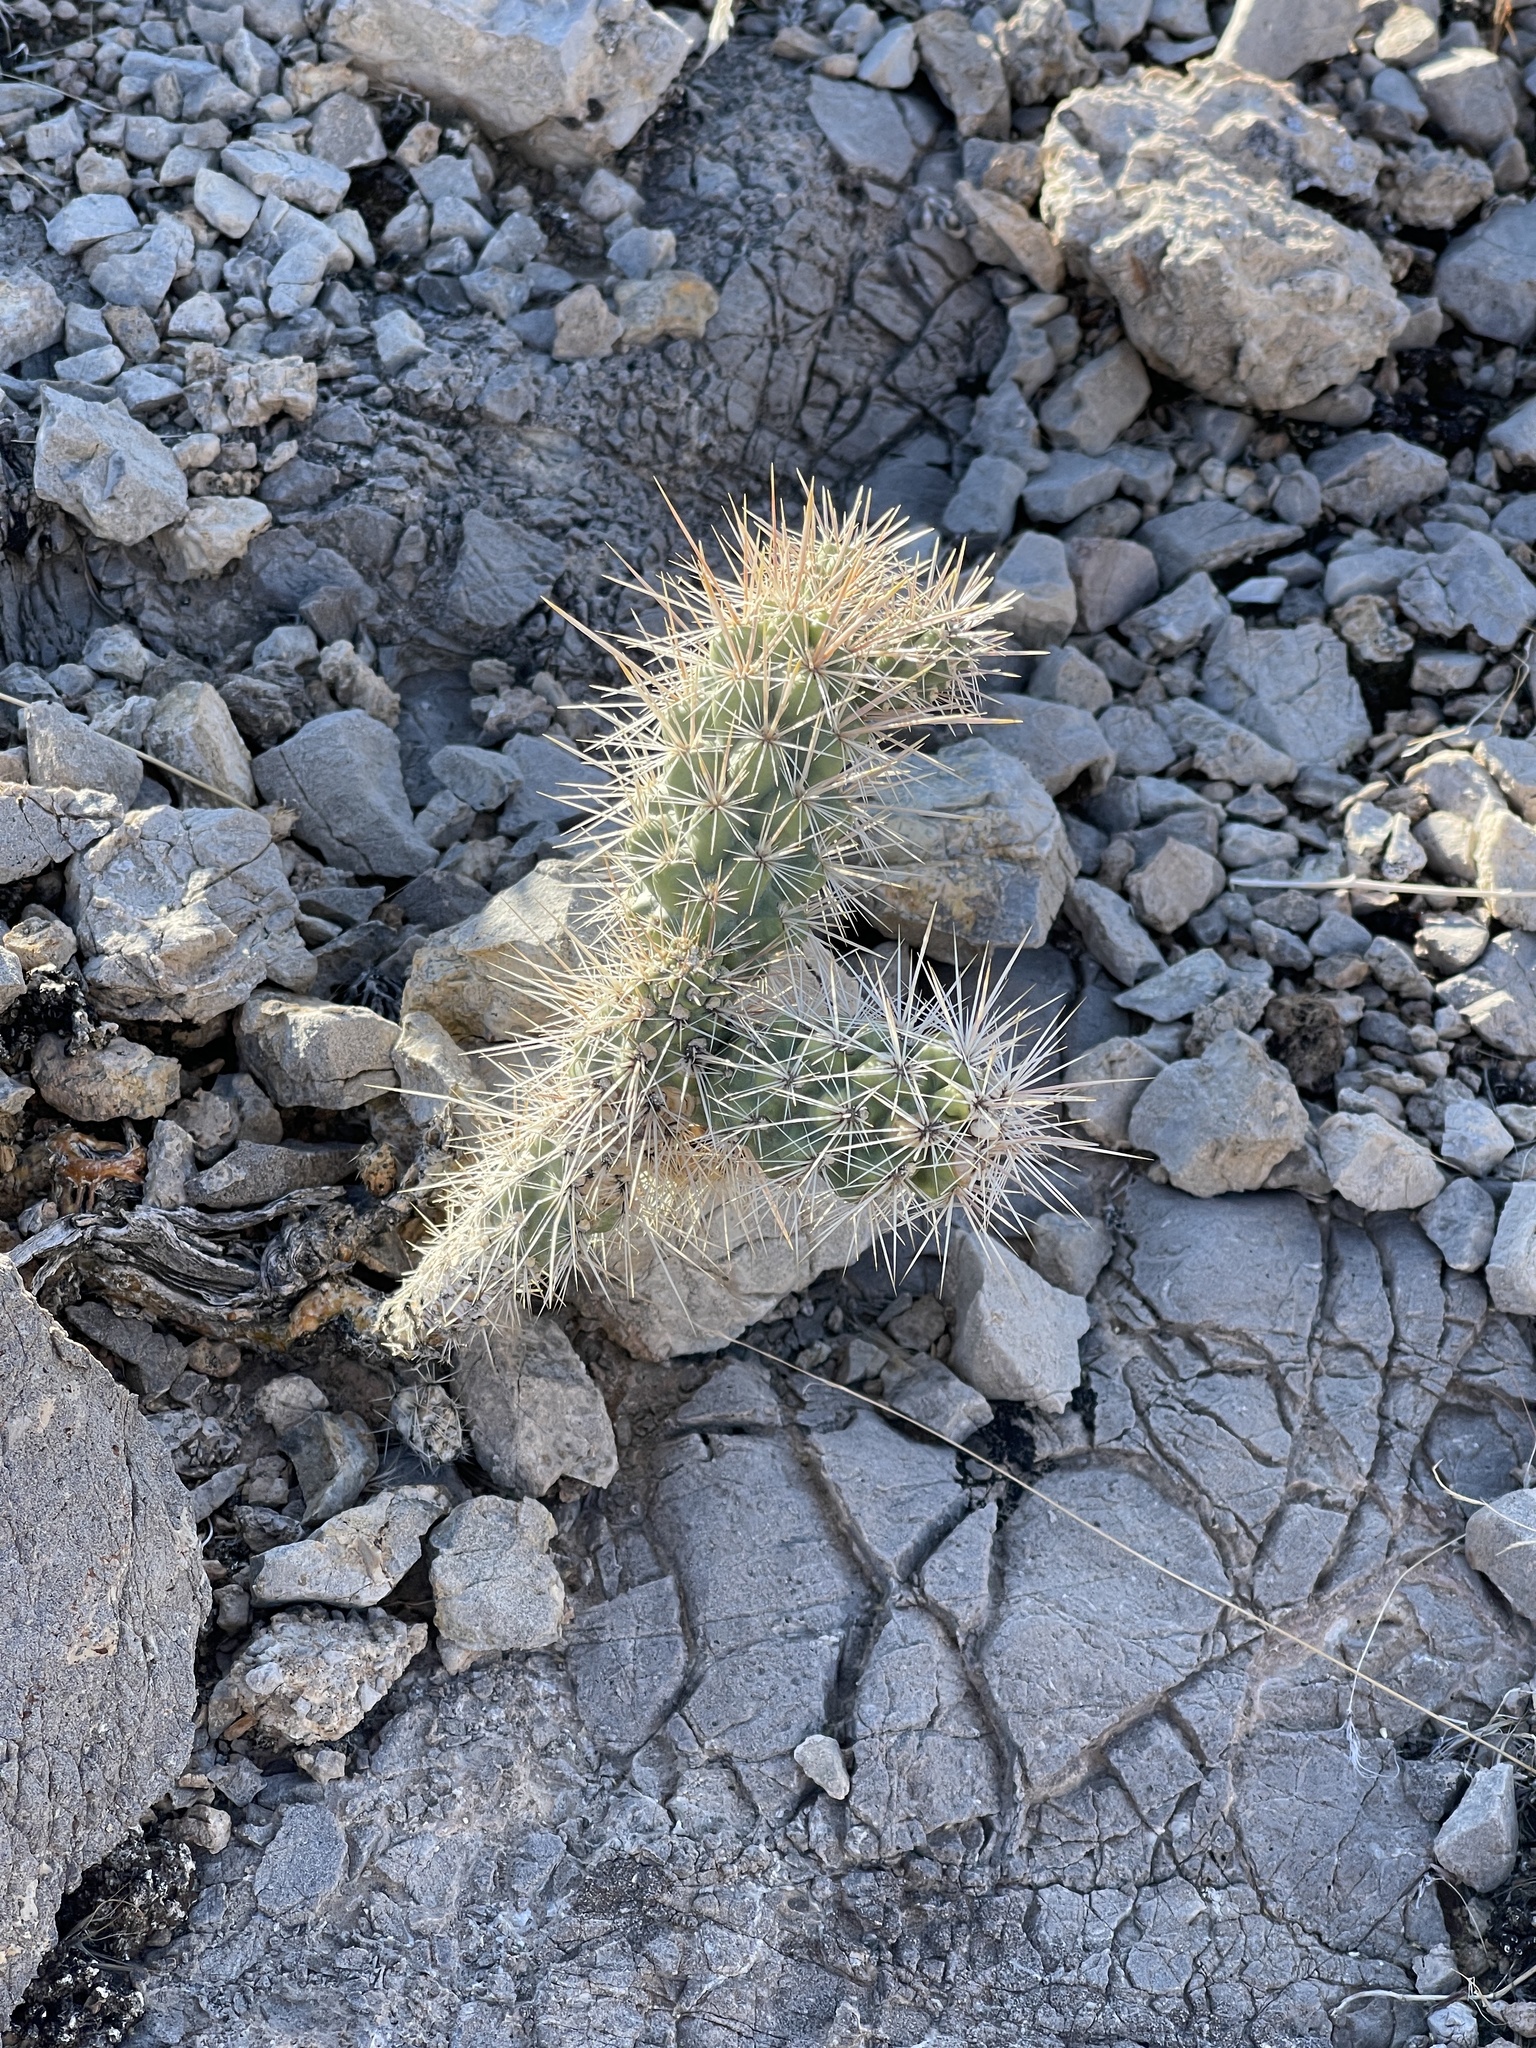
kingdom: Plantae
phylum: Tracheophyta
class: Magnoliopsida
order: Caryophyllales
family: Cactaceae
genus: Cylindropuntia
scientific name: Cylindropuntia echinocarpa
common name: Ground cholla
